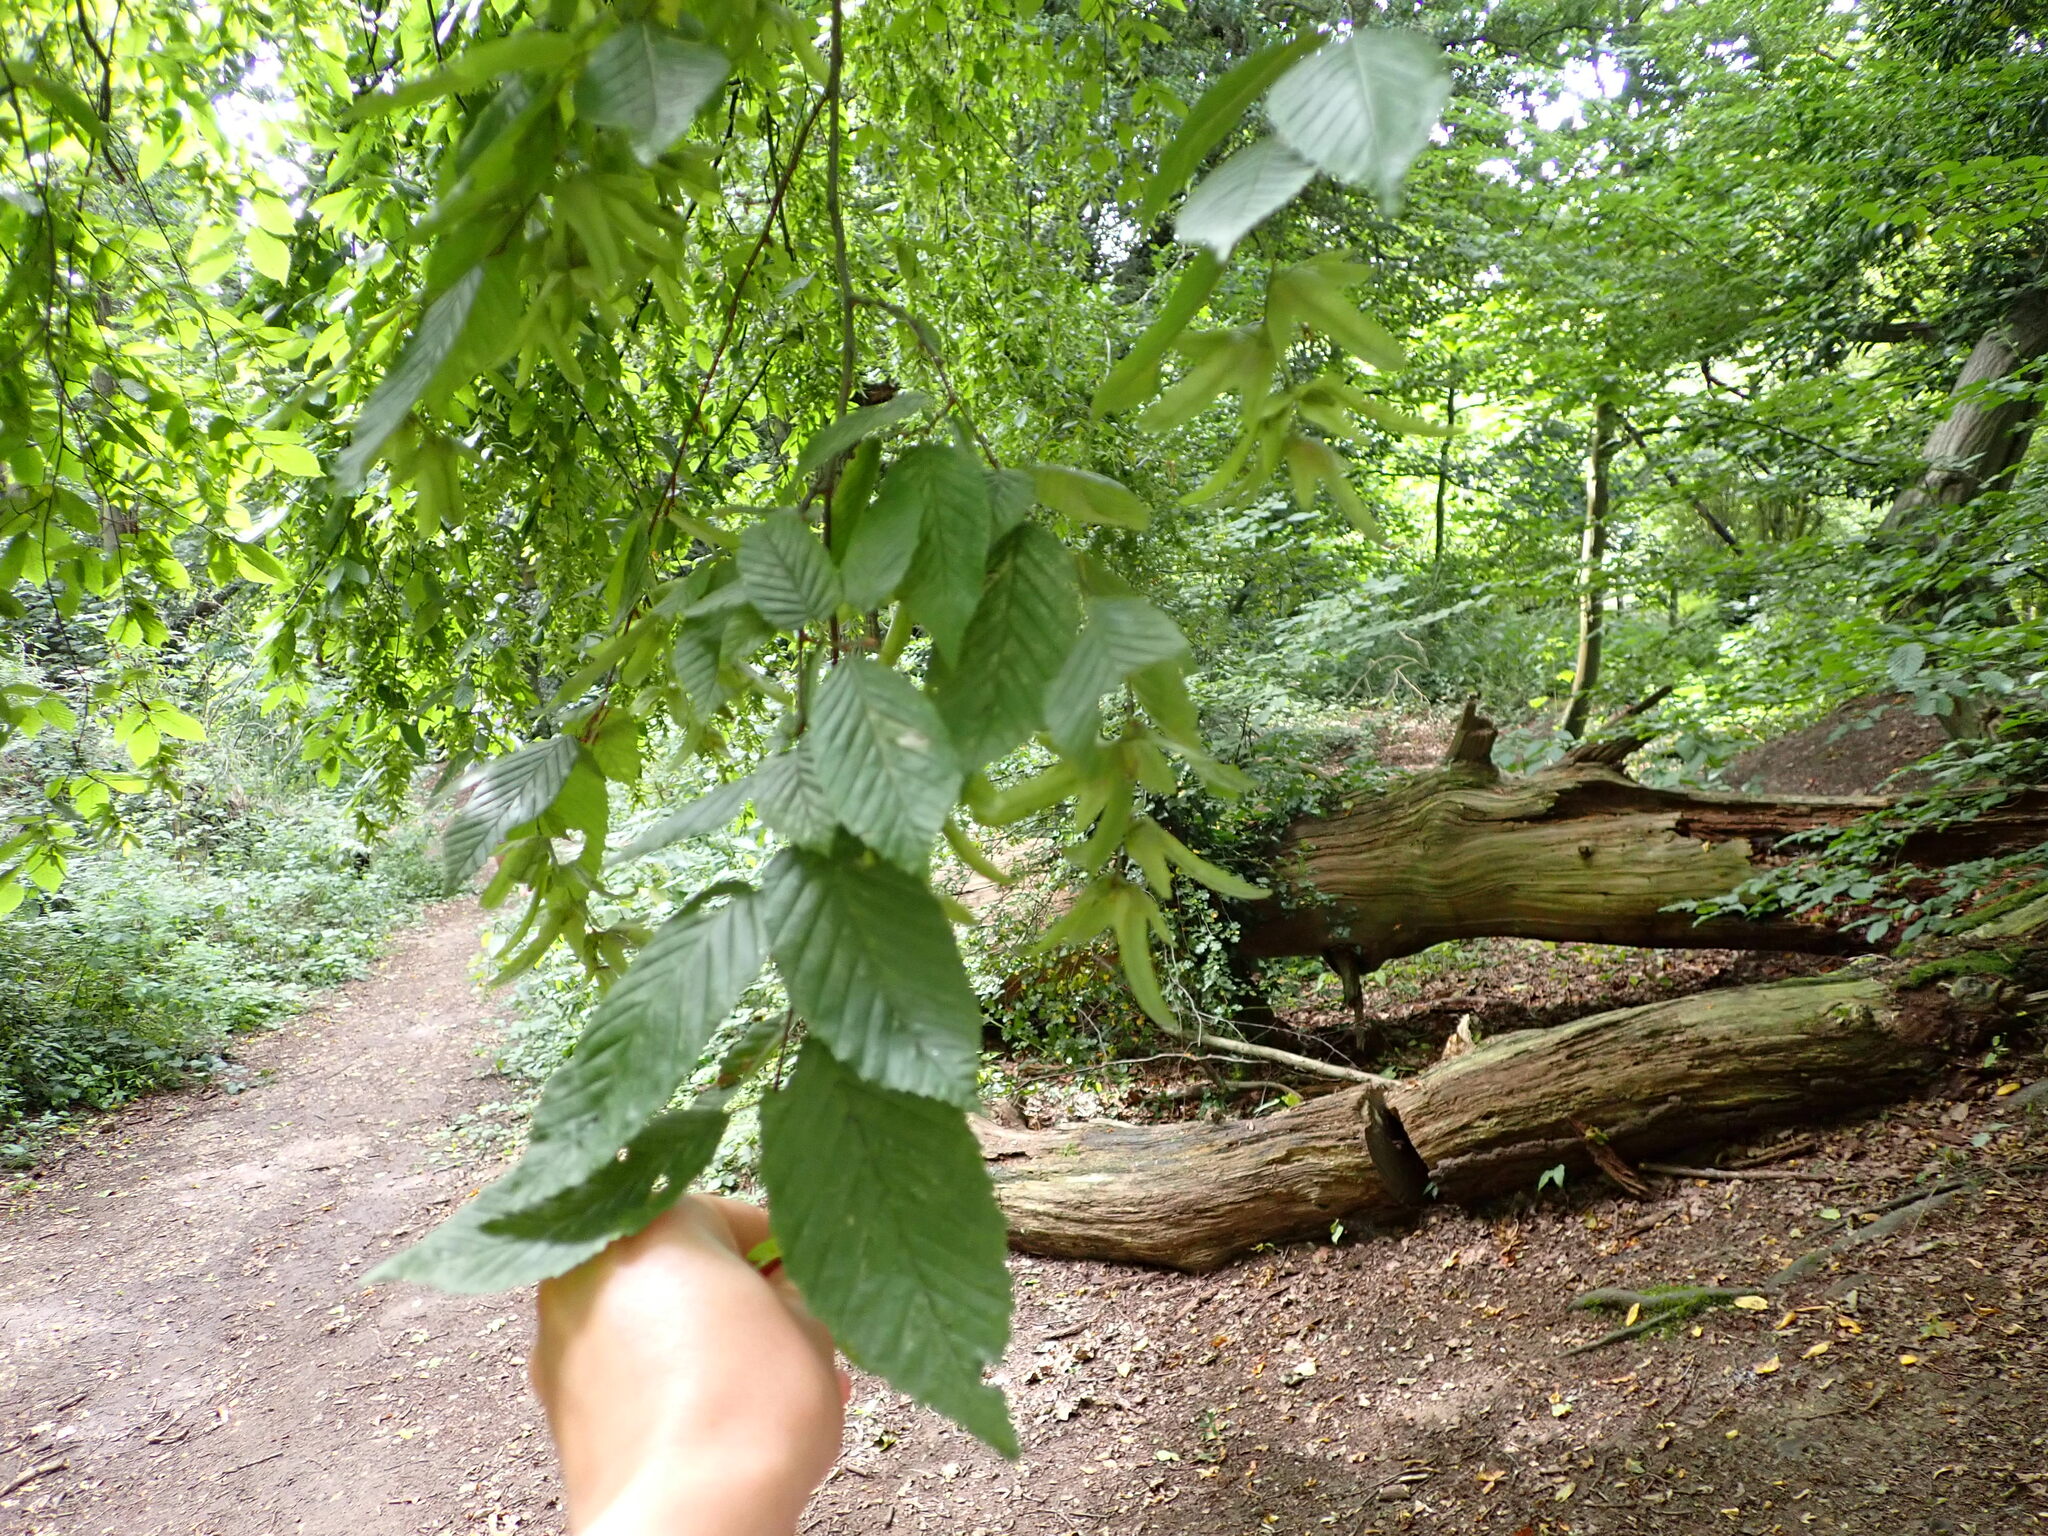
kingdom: Plantae
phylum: Tracheophyta
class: Magnoliopsida
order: Fagales
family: Betulaceae
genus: Carpinus
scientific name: Carpinus betulus
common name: Hornbeam
